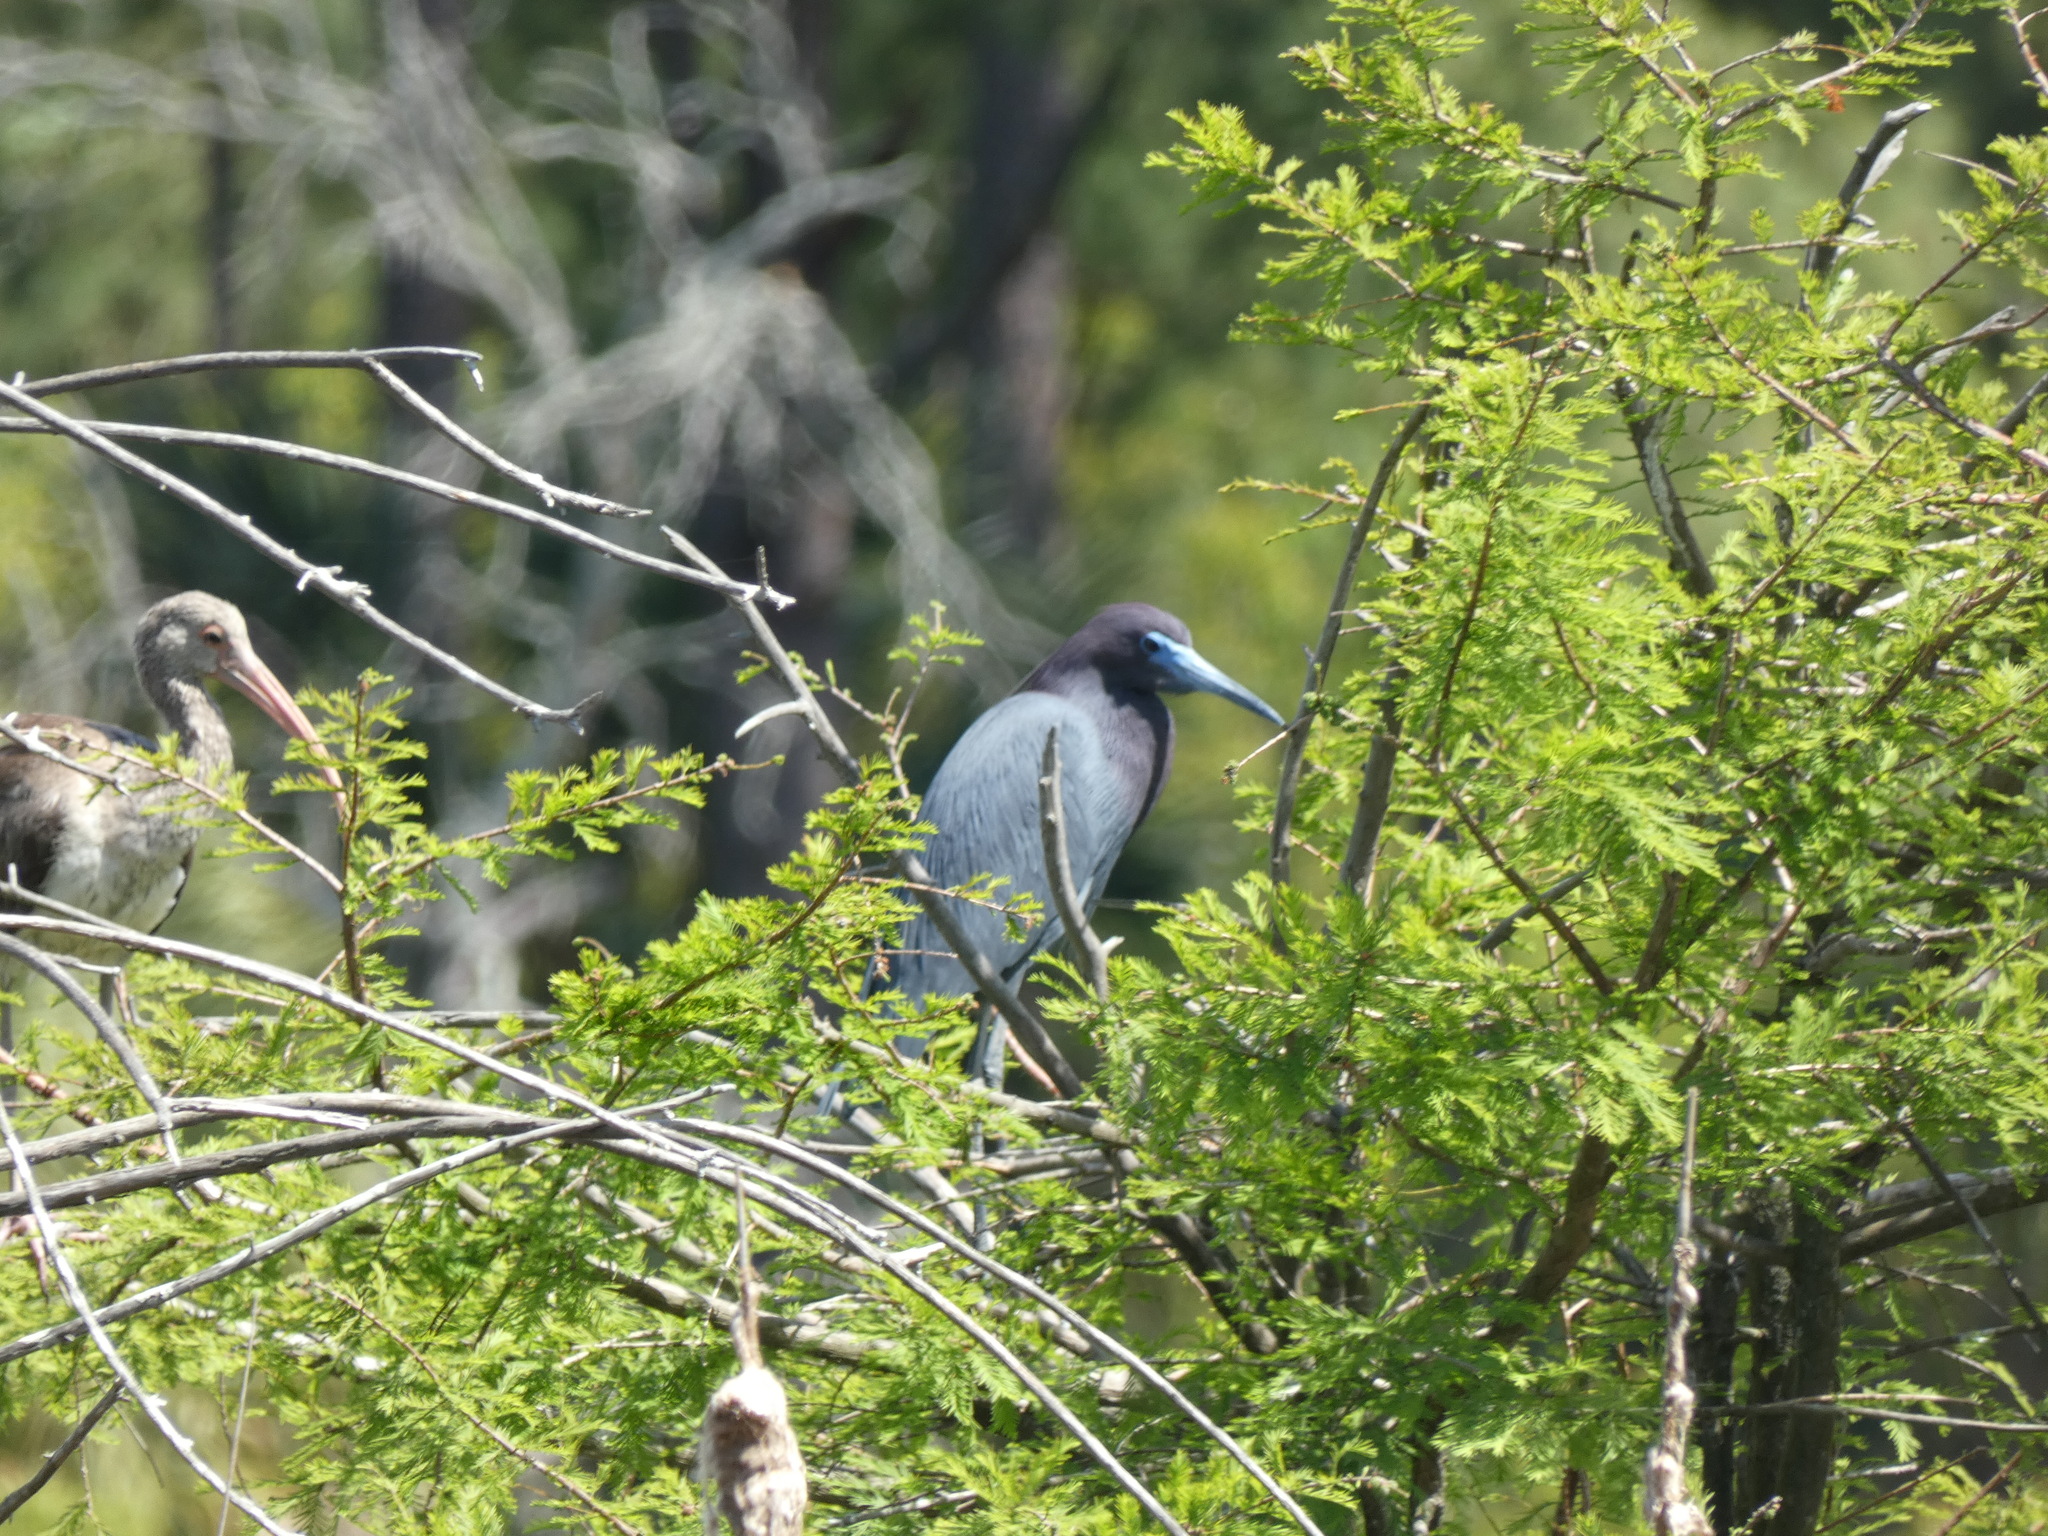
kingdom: Animalia
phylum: Chordata
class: Aves
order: Pelecaniformes
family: Ardeidae
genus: Egretta
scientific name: Egretta caerulea
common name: Little blue heron
